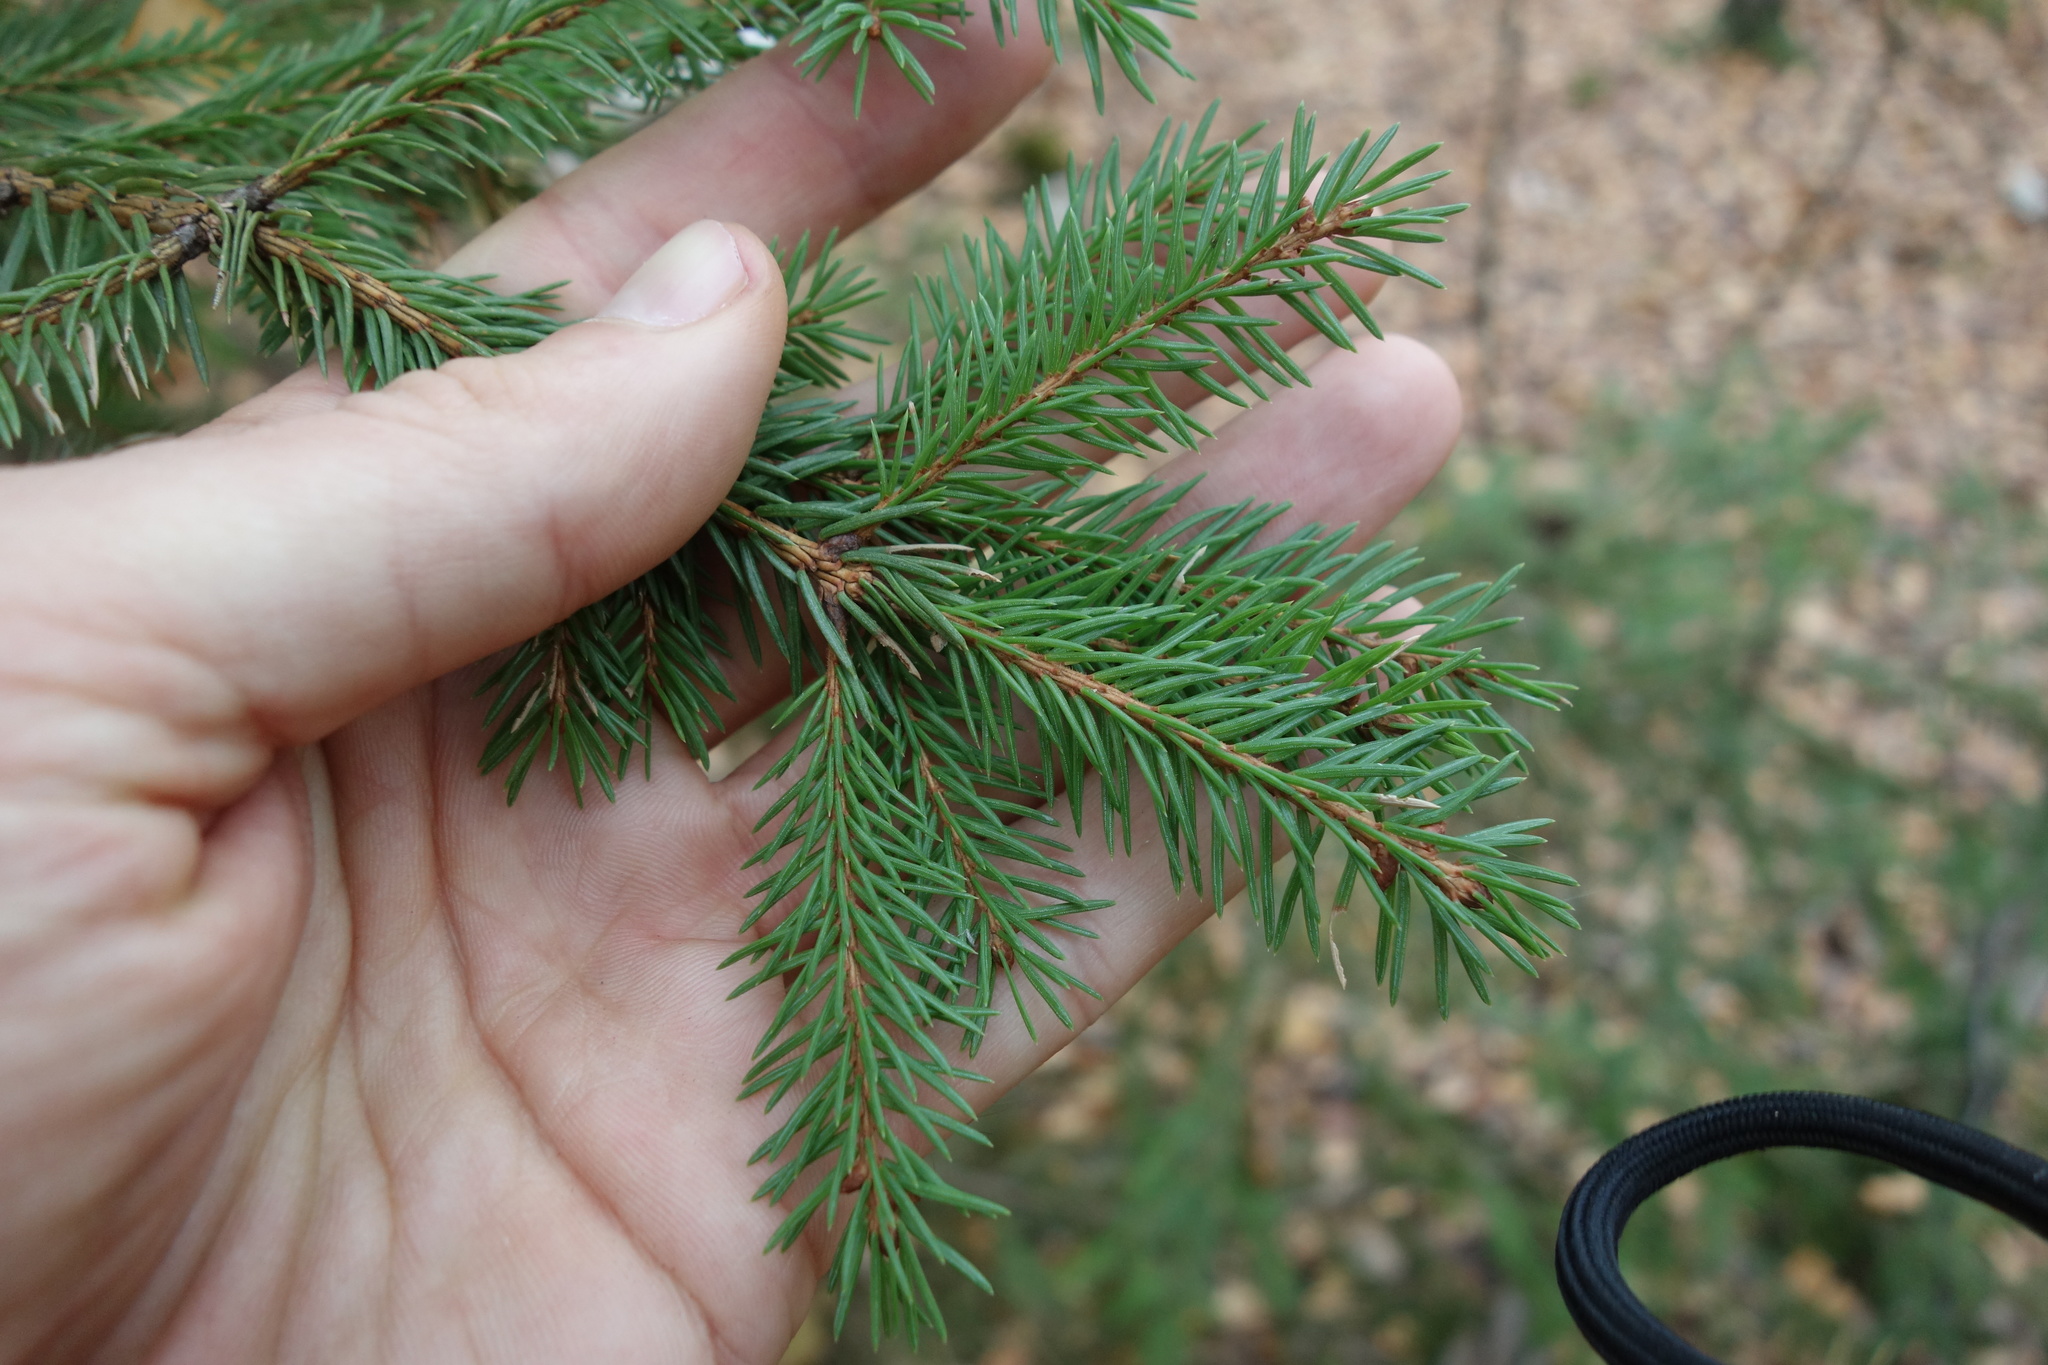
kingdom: Plantae
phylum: Tracheophyta
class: Pinopsida
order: Pinales
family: Pinaceae
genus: Picea
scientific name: Picea abies
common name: Norway spruce
